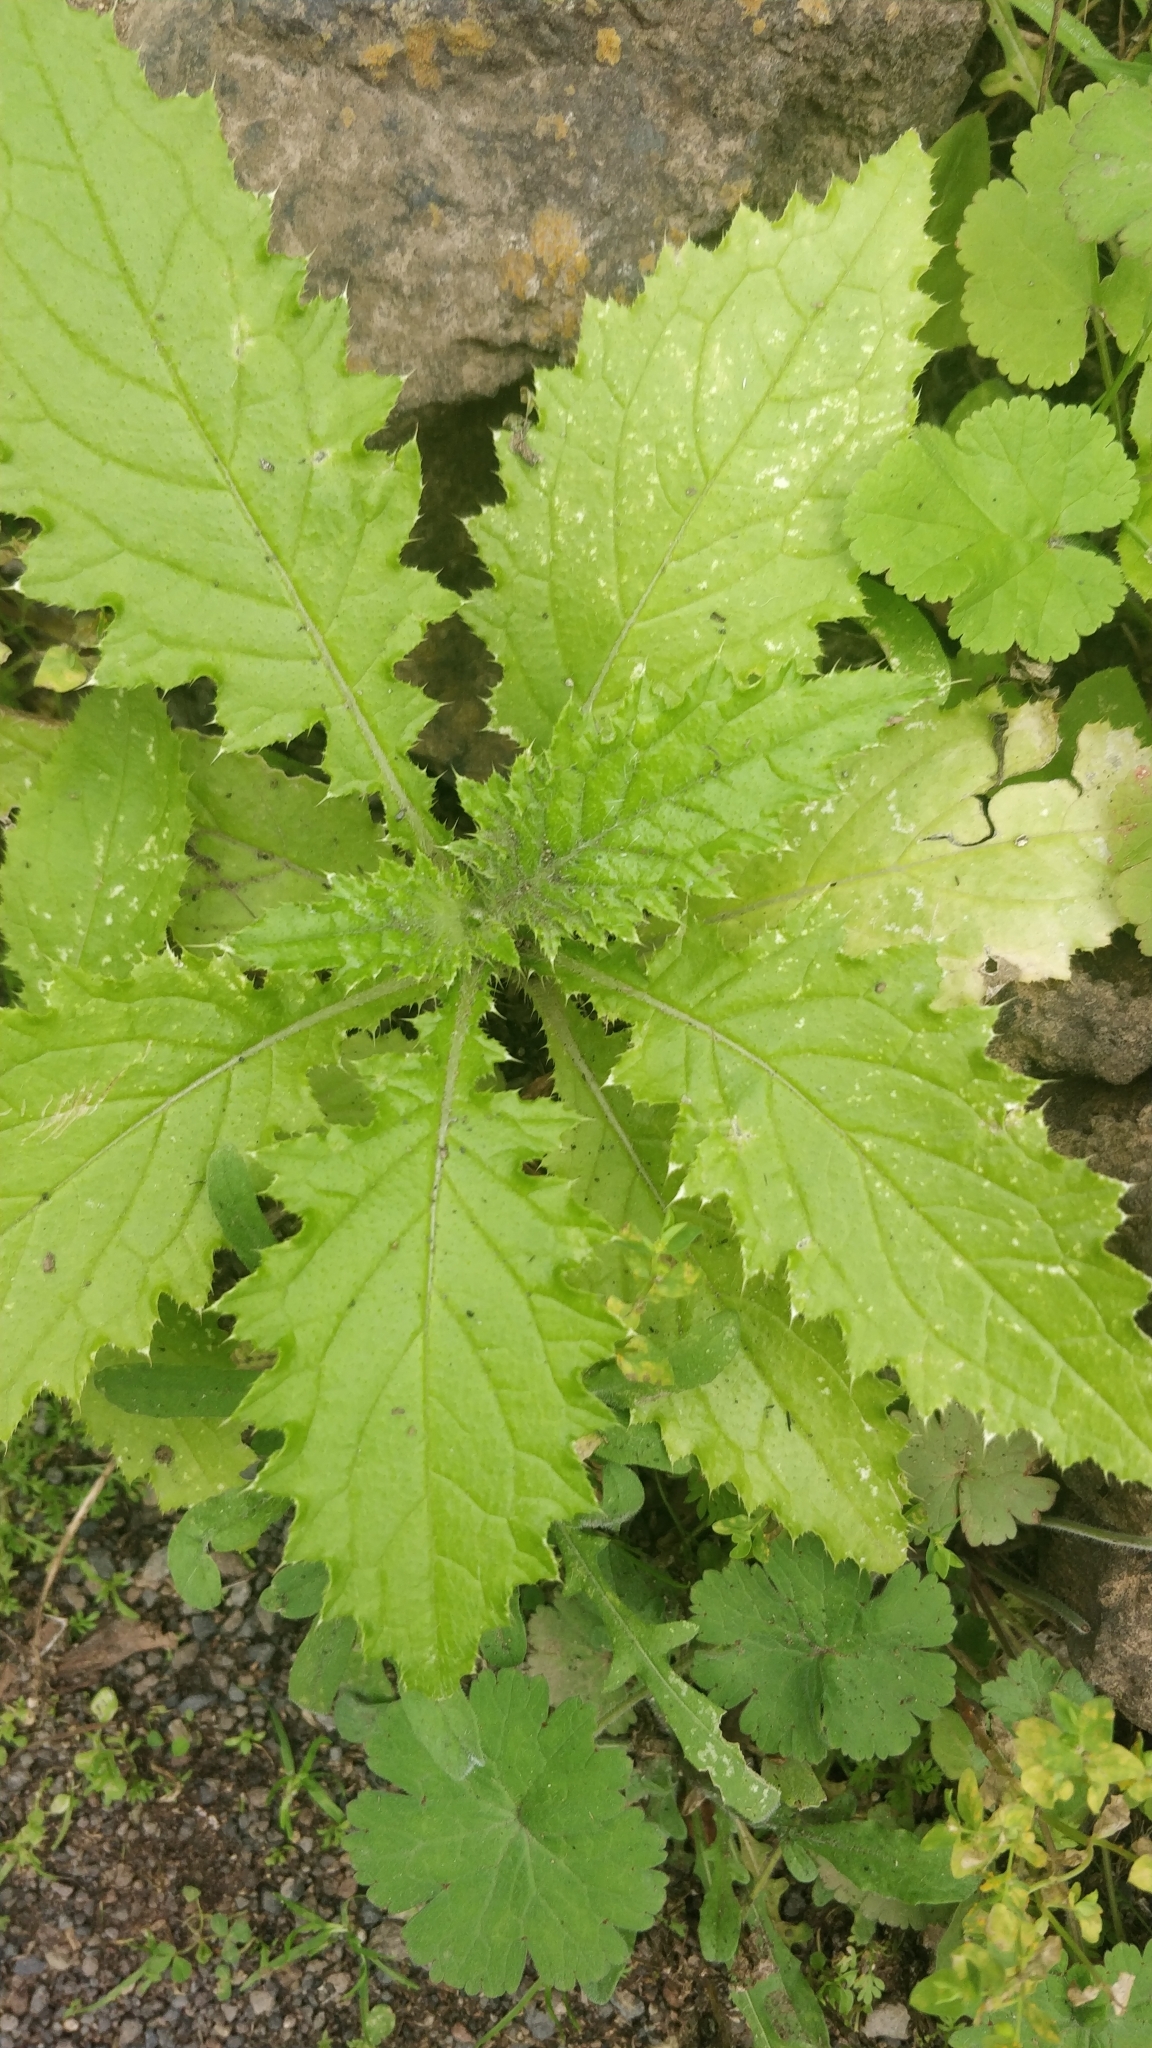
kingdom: Plantae
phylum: Tracheophyta
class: Magnoliopsida
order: Asterales
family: Asteraceae
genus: Carduus
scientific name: Carduus clavulatus
